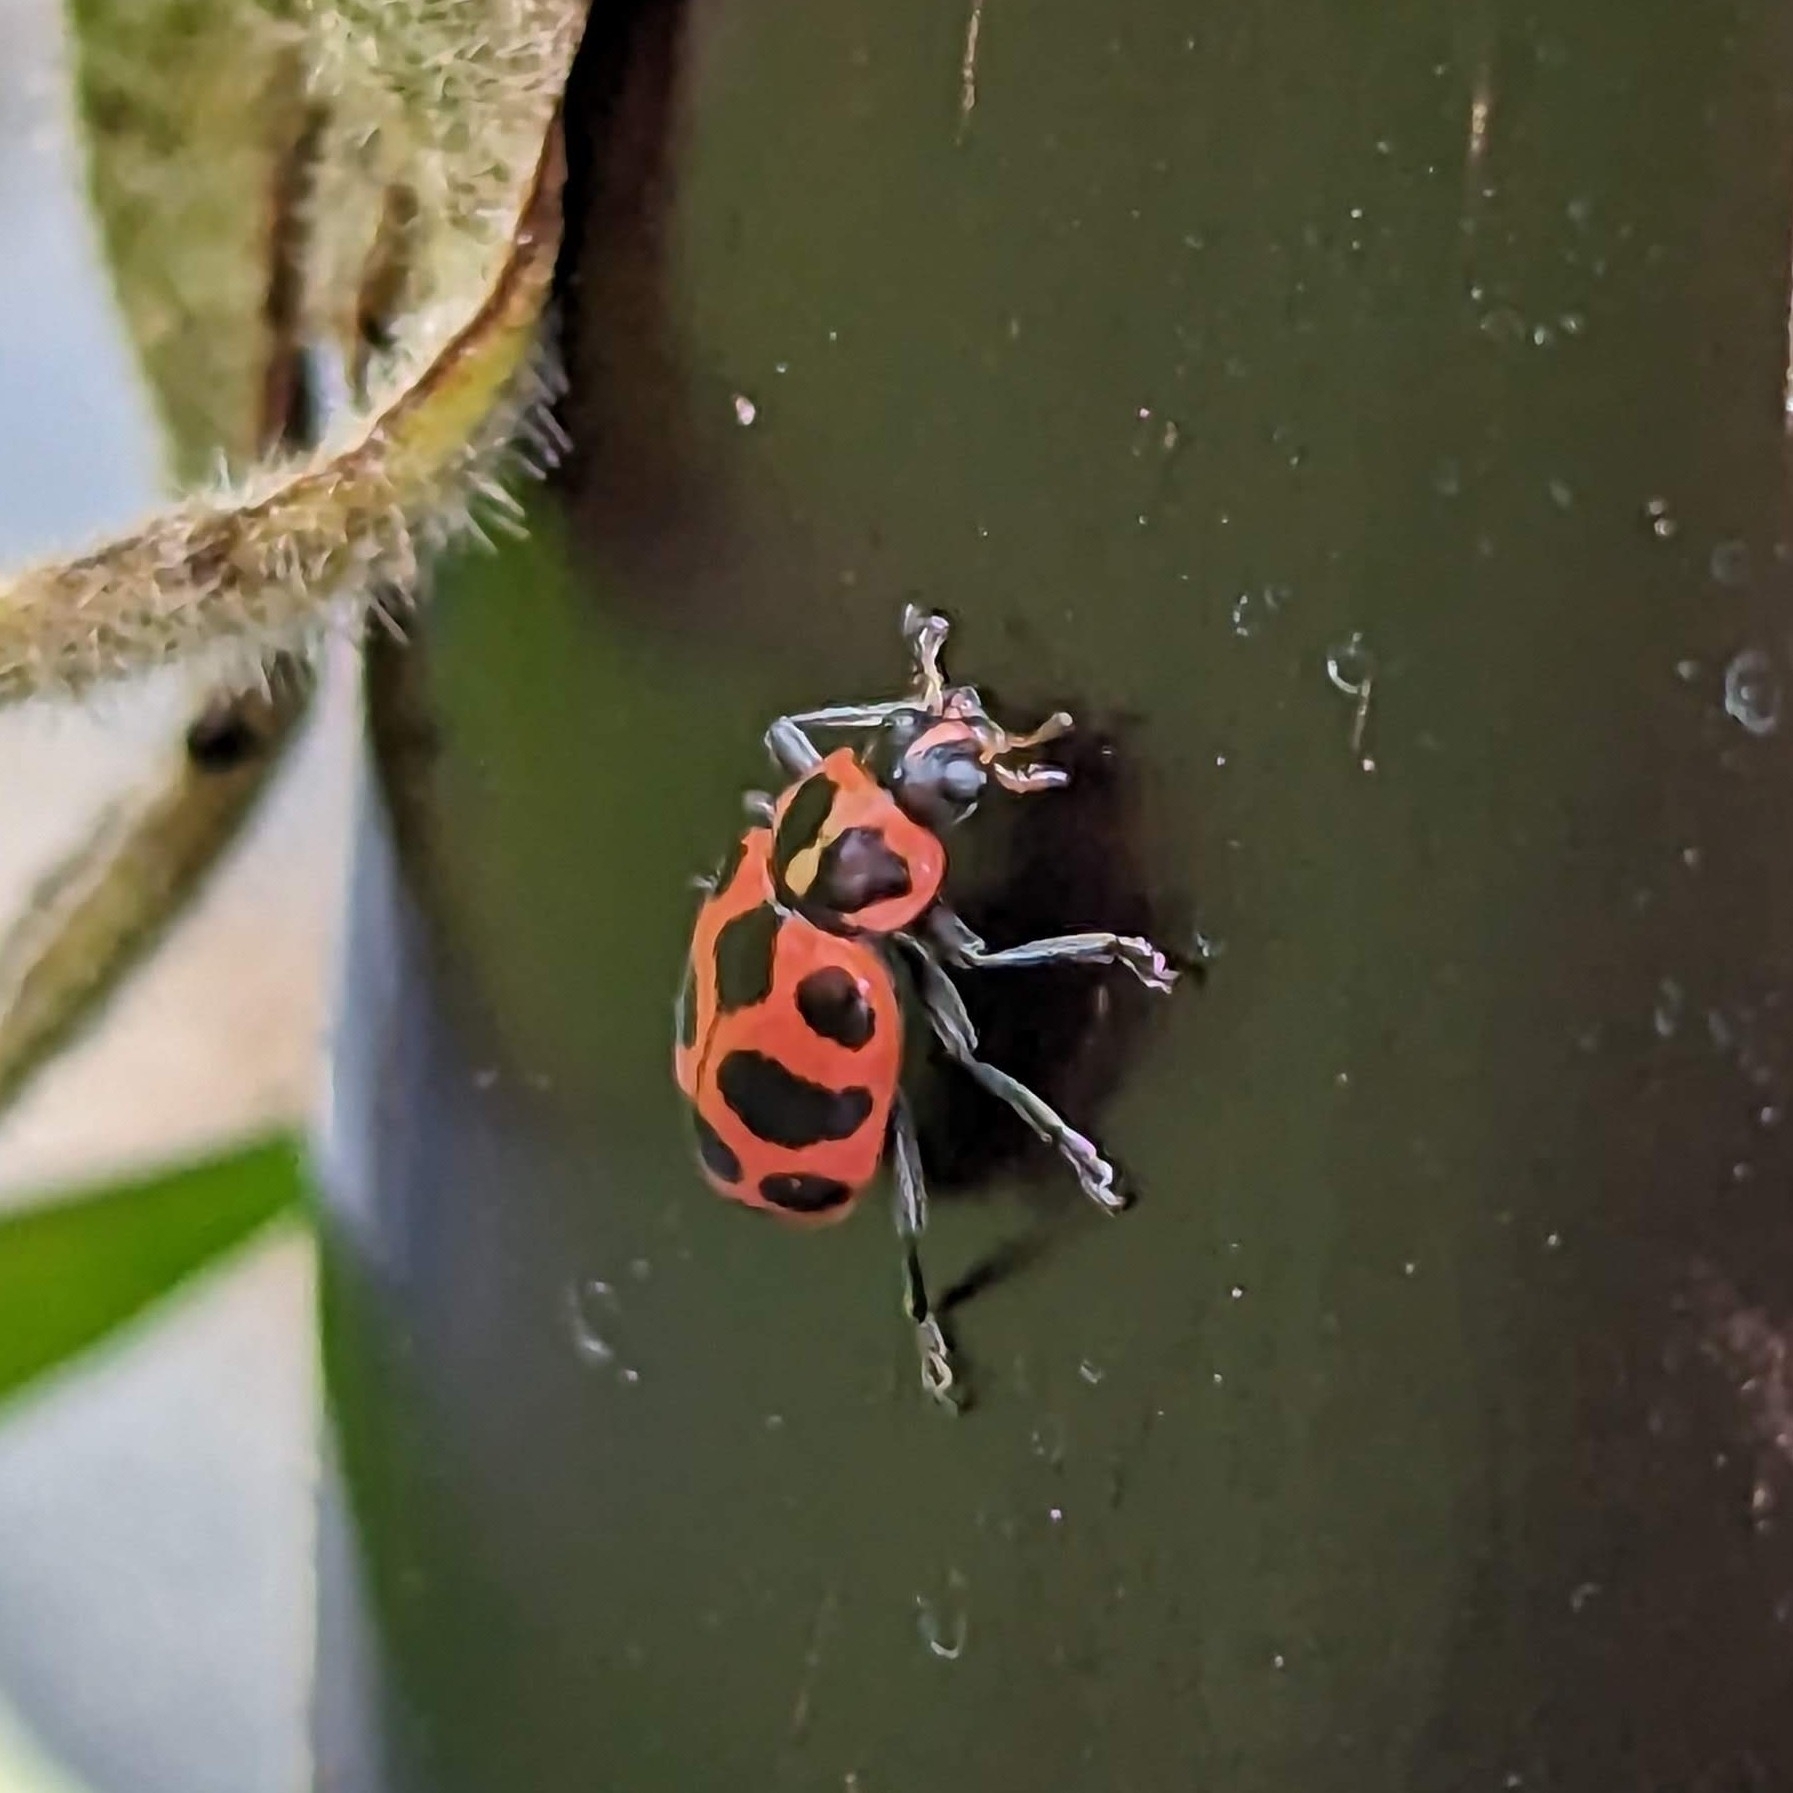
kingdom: Animalia
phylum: Arthropoda
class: Insecta
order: Coleoptera
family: Coccinellidae
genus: Coleomegilla
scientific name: Coleomegilla maculata
